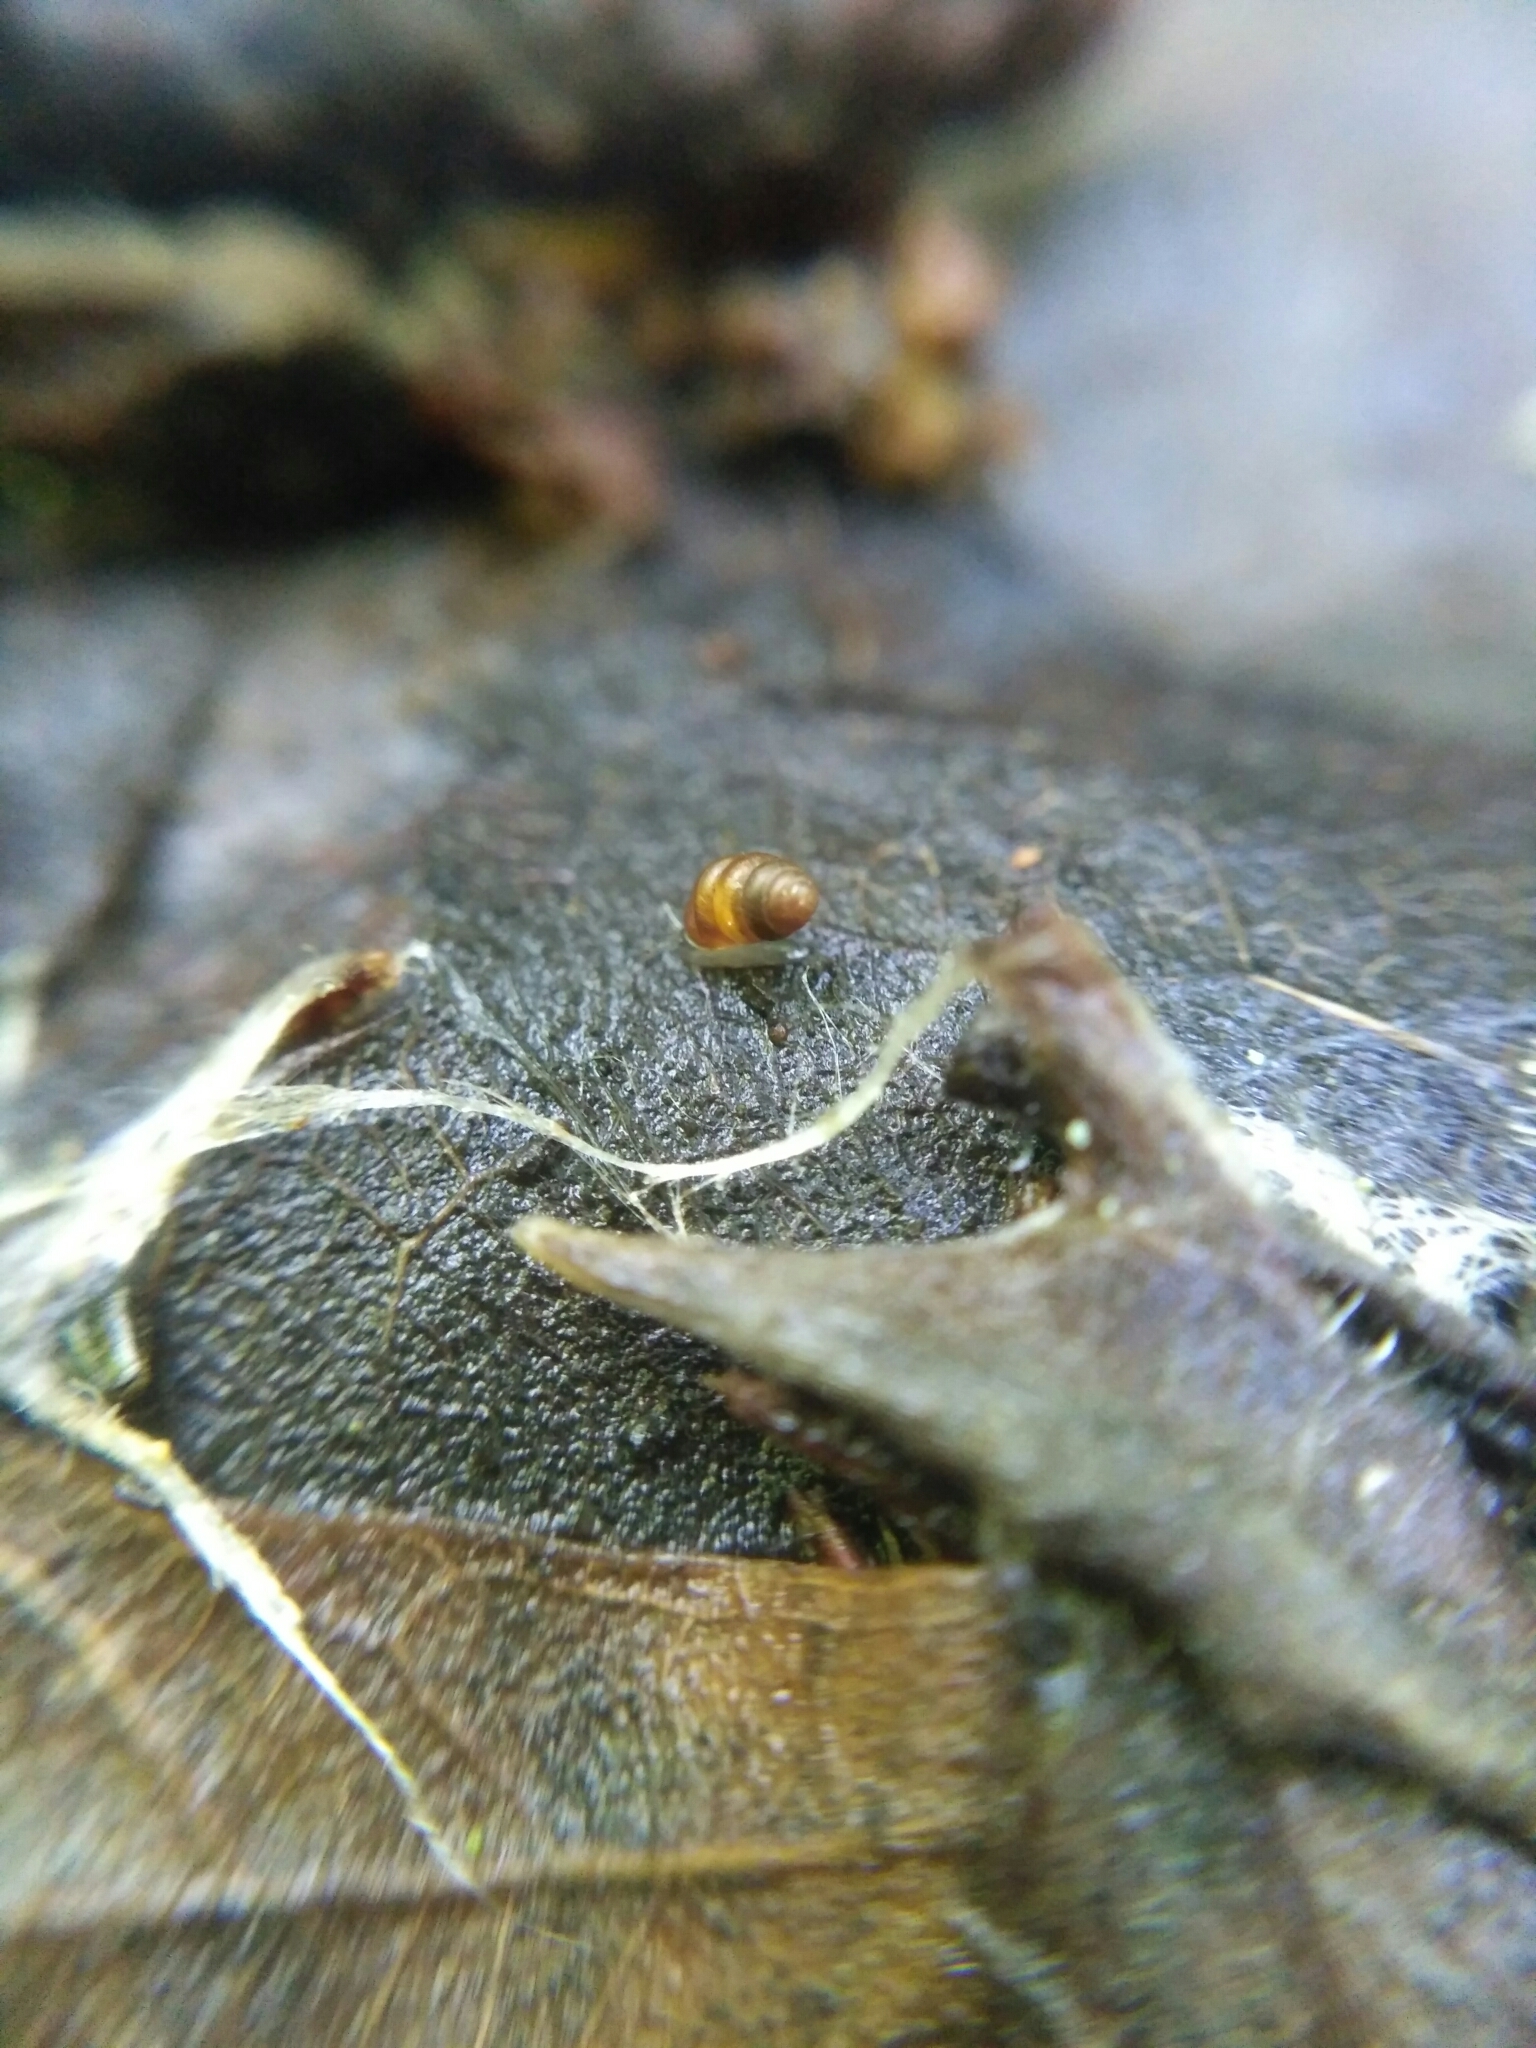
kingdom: Animalia
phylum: Mollusca
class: Gastropoda
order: Stylommatophora
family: Vertiginidae
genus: Vertigo
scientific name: Vertigo pusilla
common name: Wall whorl snail
